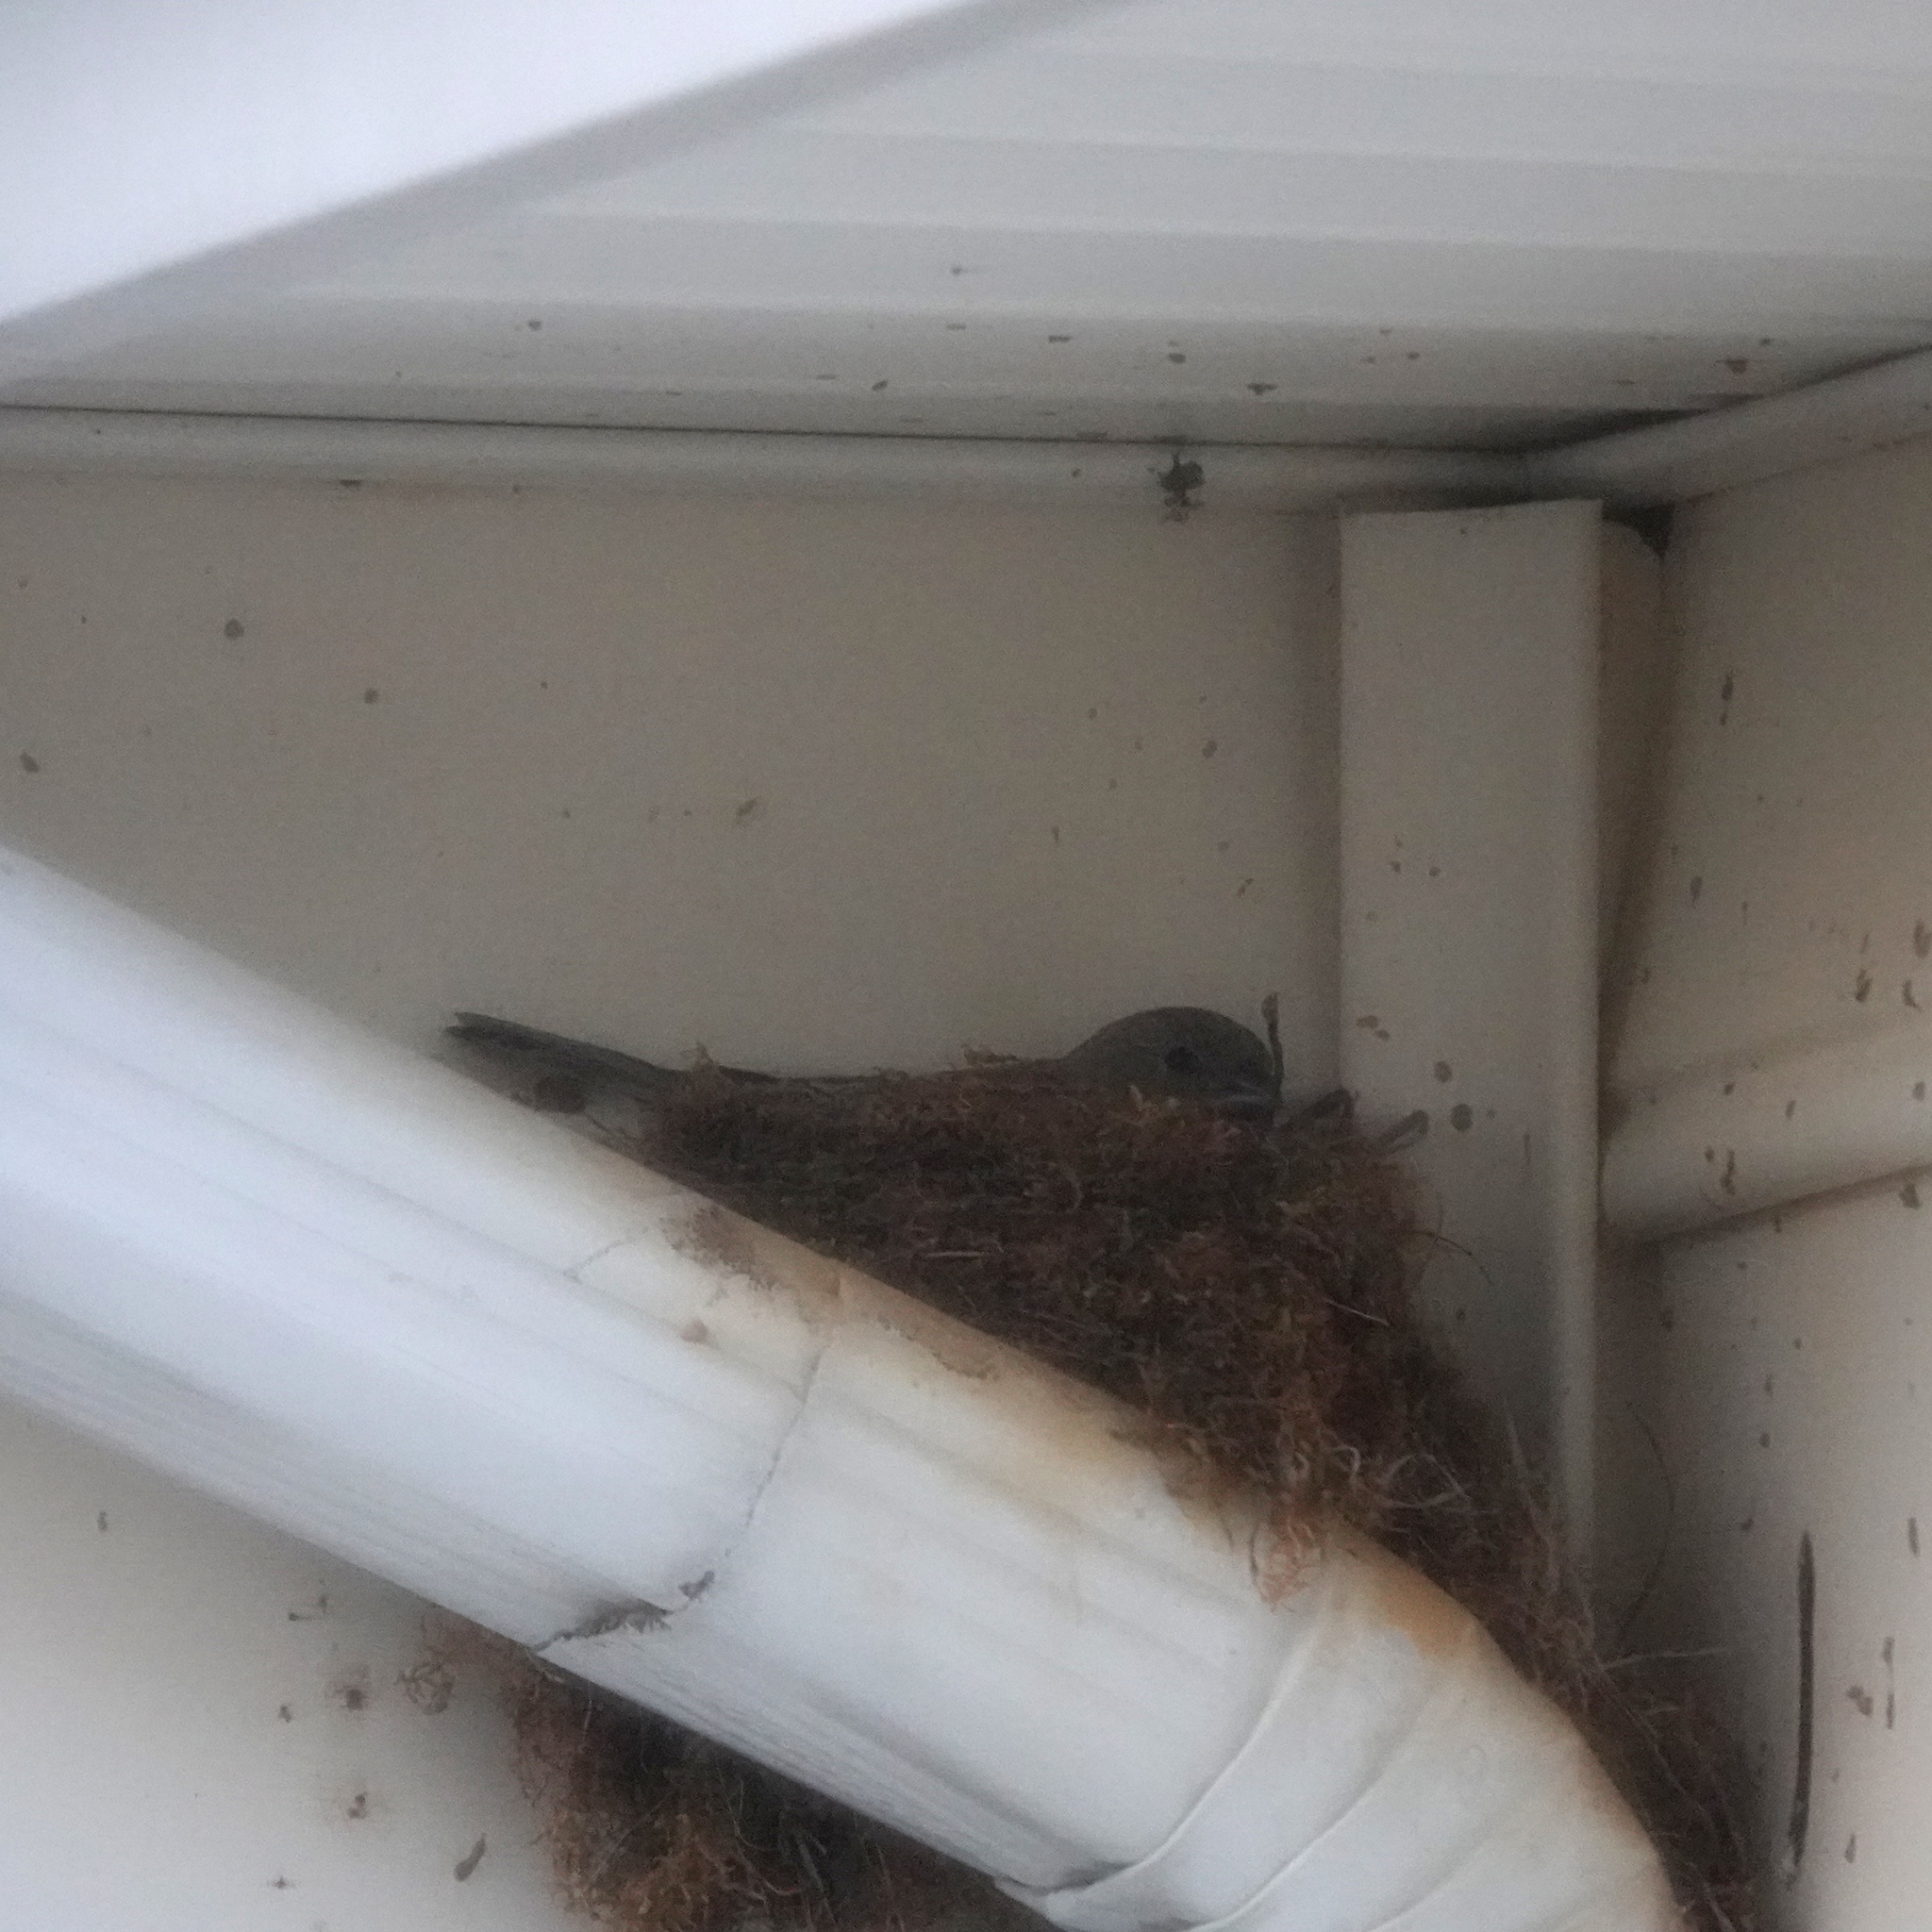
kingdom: Animalia
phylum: Chordata
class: Aves
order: Passeriformes
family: Fringillidae
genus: Haemorhous
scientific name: Haemorhous mexicanus
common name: House finch
